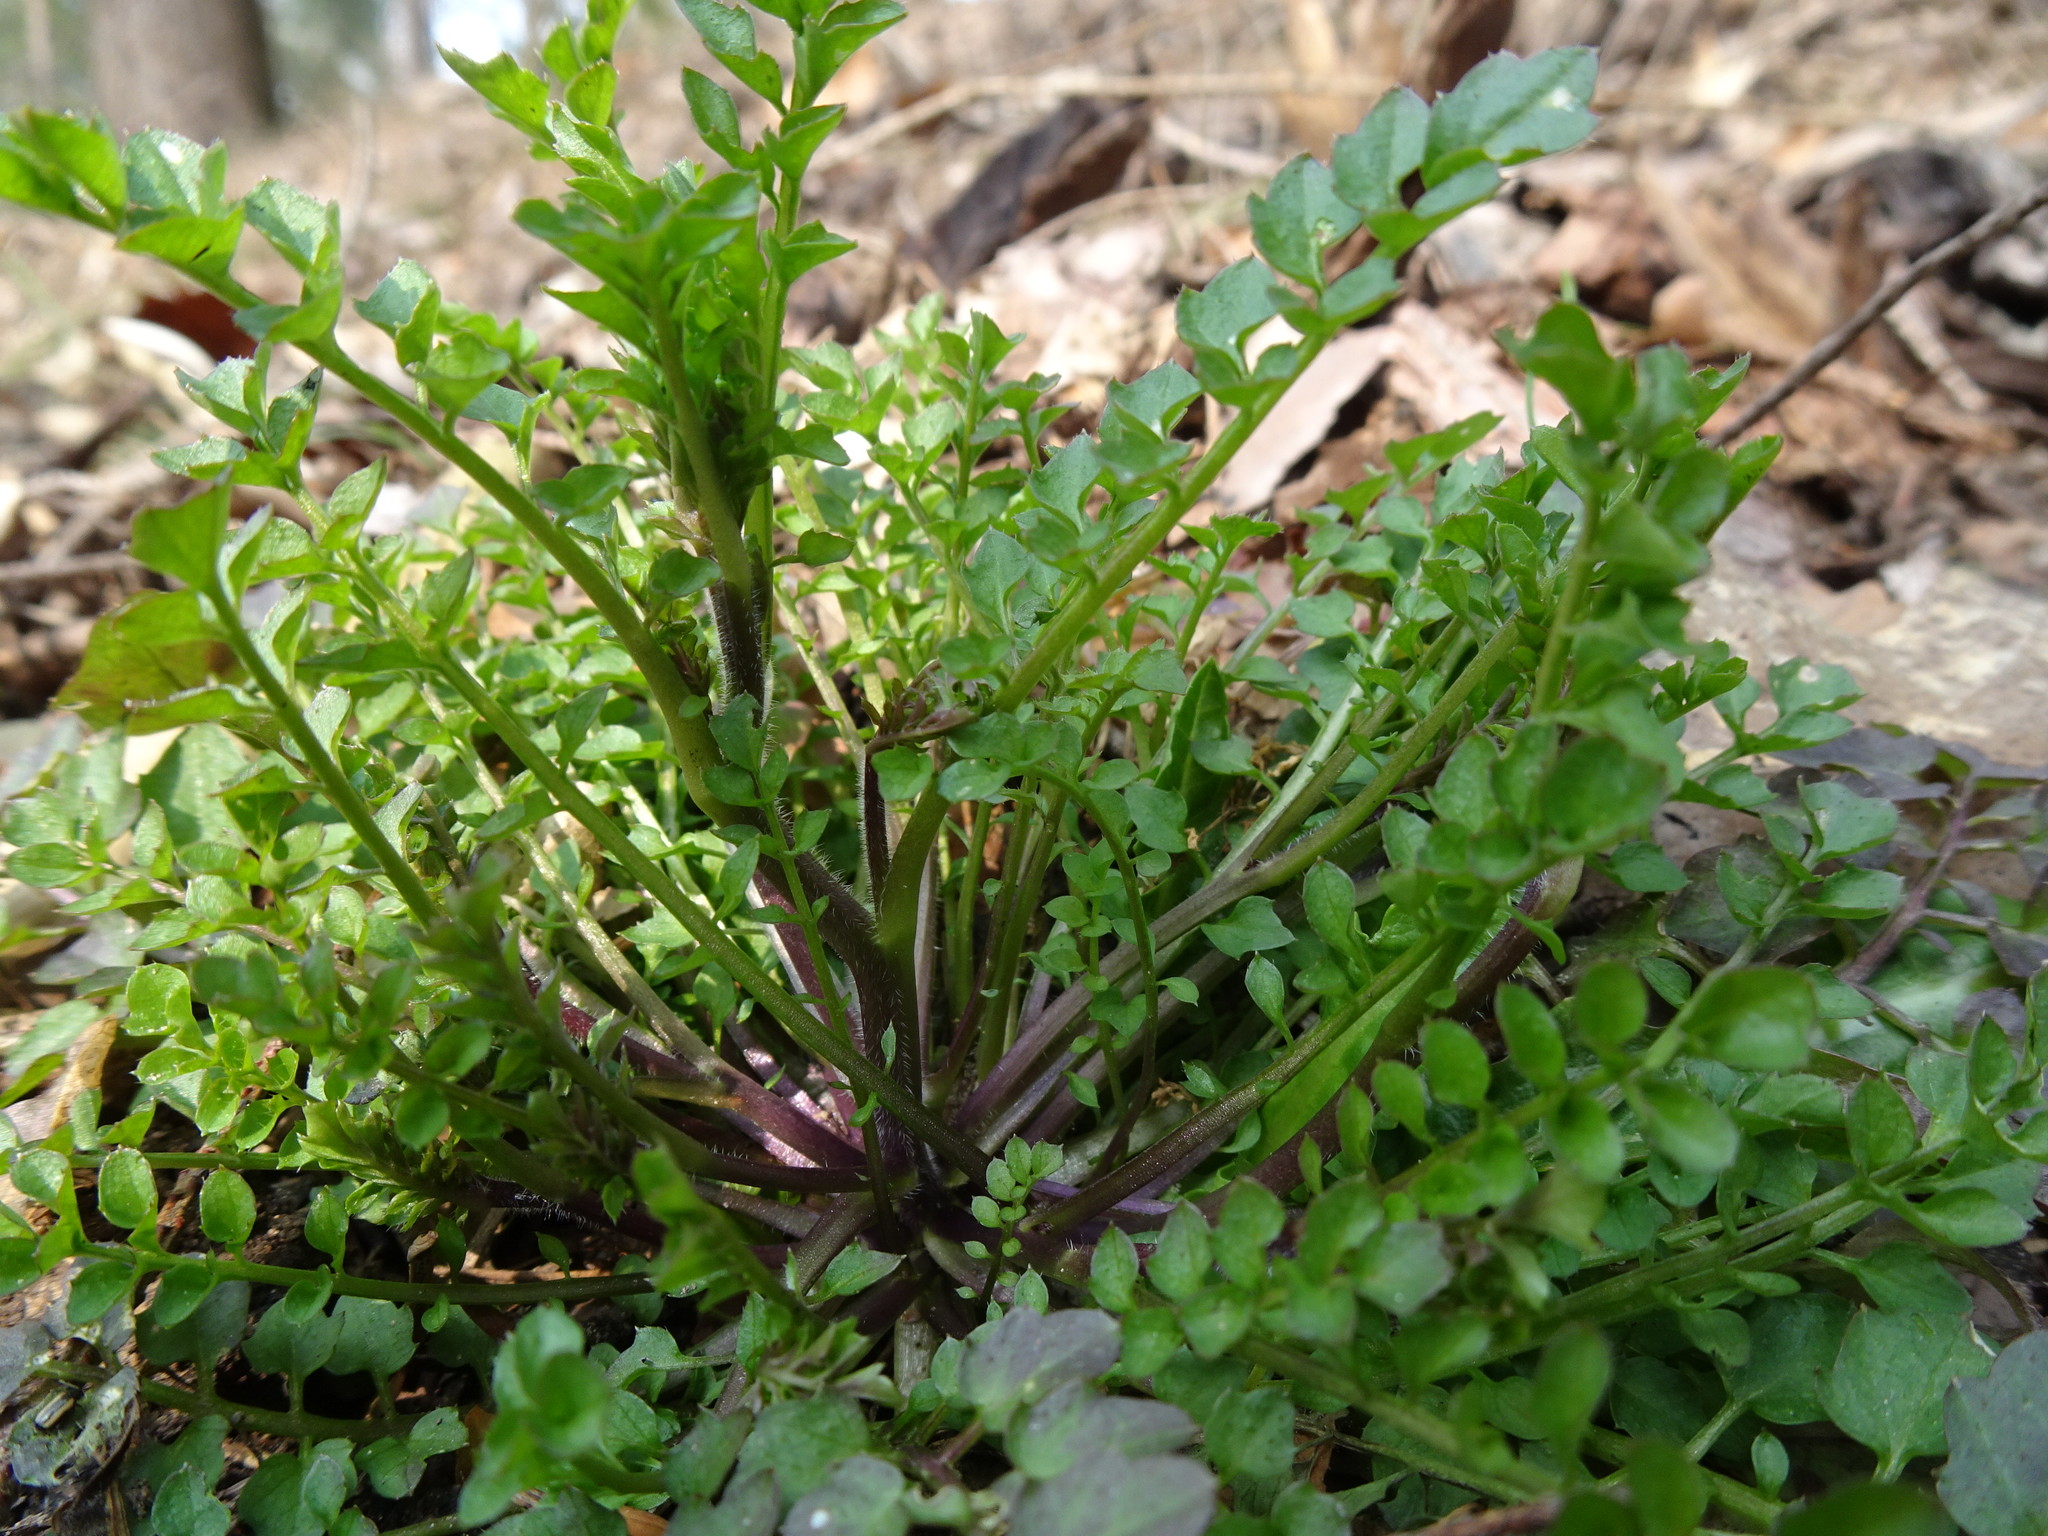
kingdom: Plantae
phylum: Tracheophyta
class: Magnoliopsida
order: Brassicales
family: Brassicaceae
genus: Cardamine
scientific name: Cardamine flexuosa
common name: Woodland bittercress
